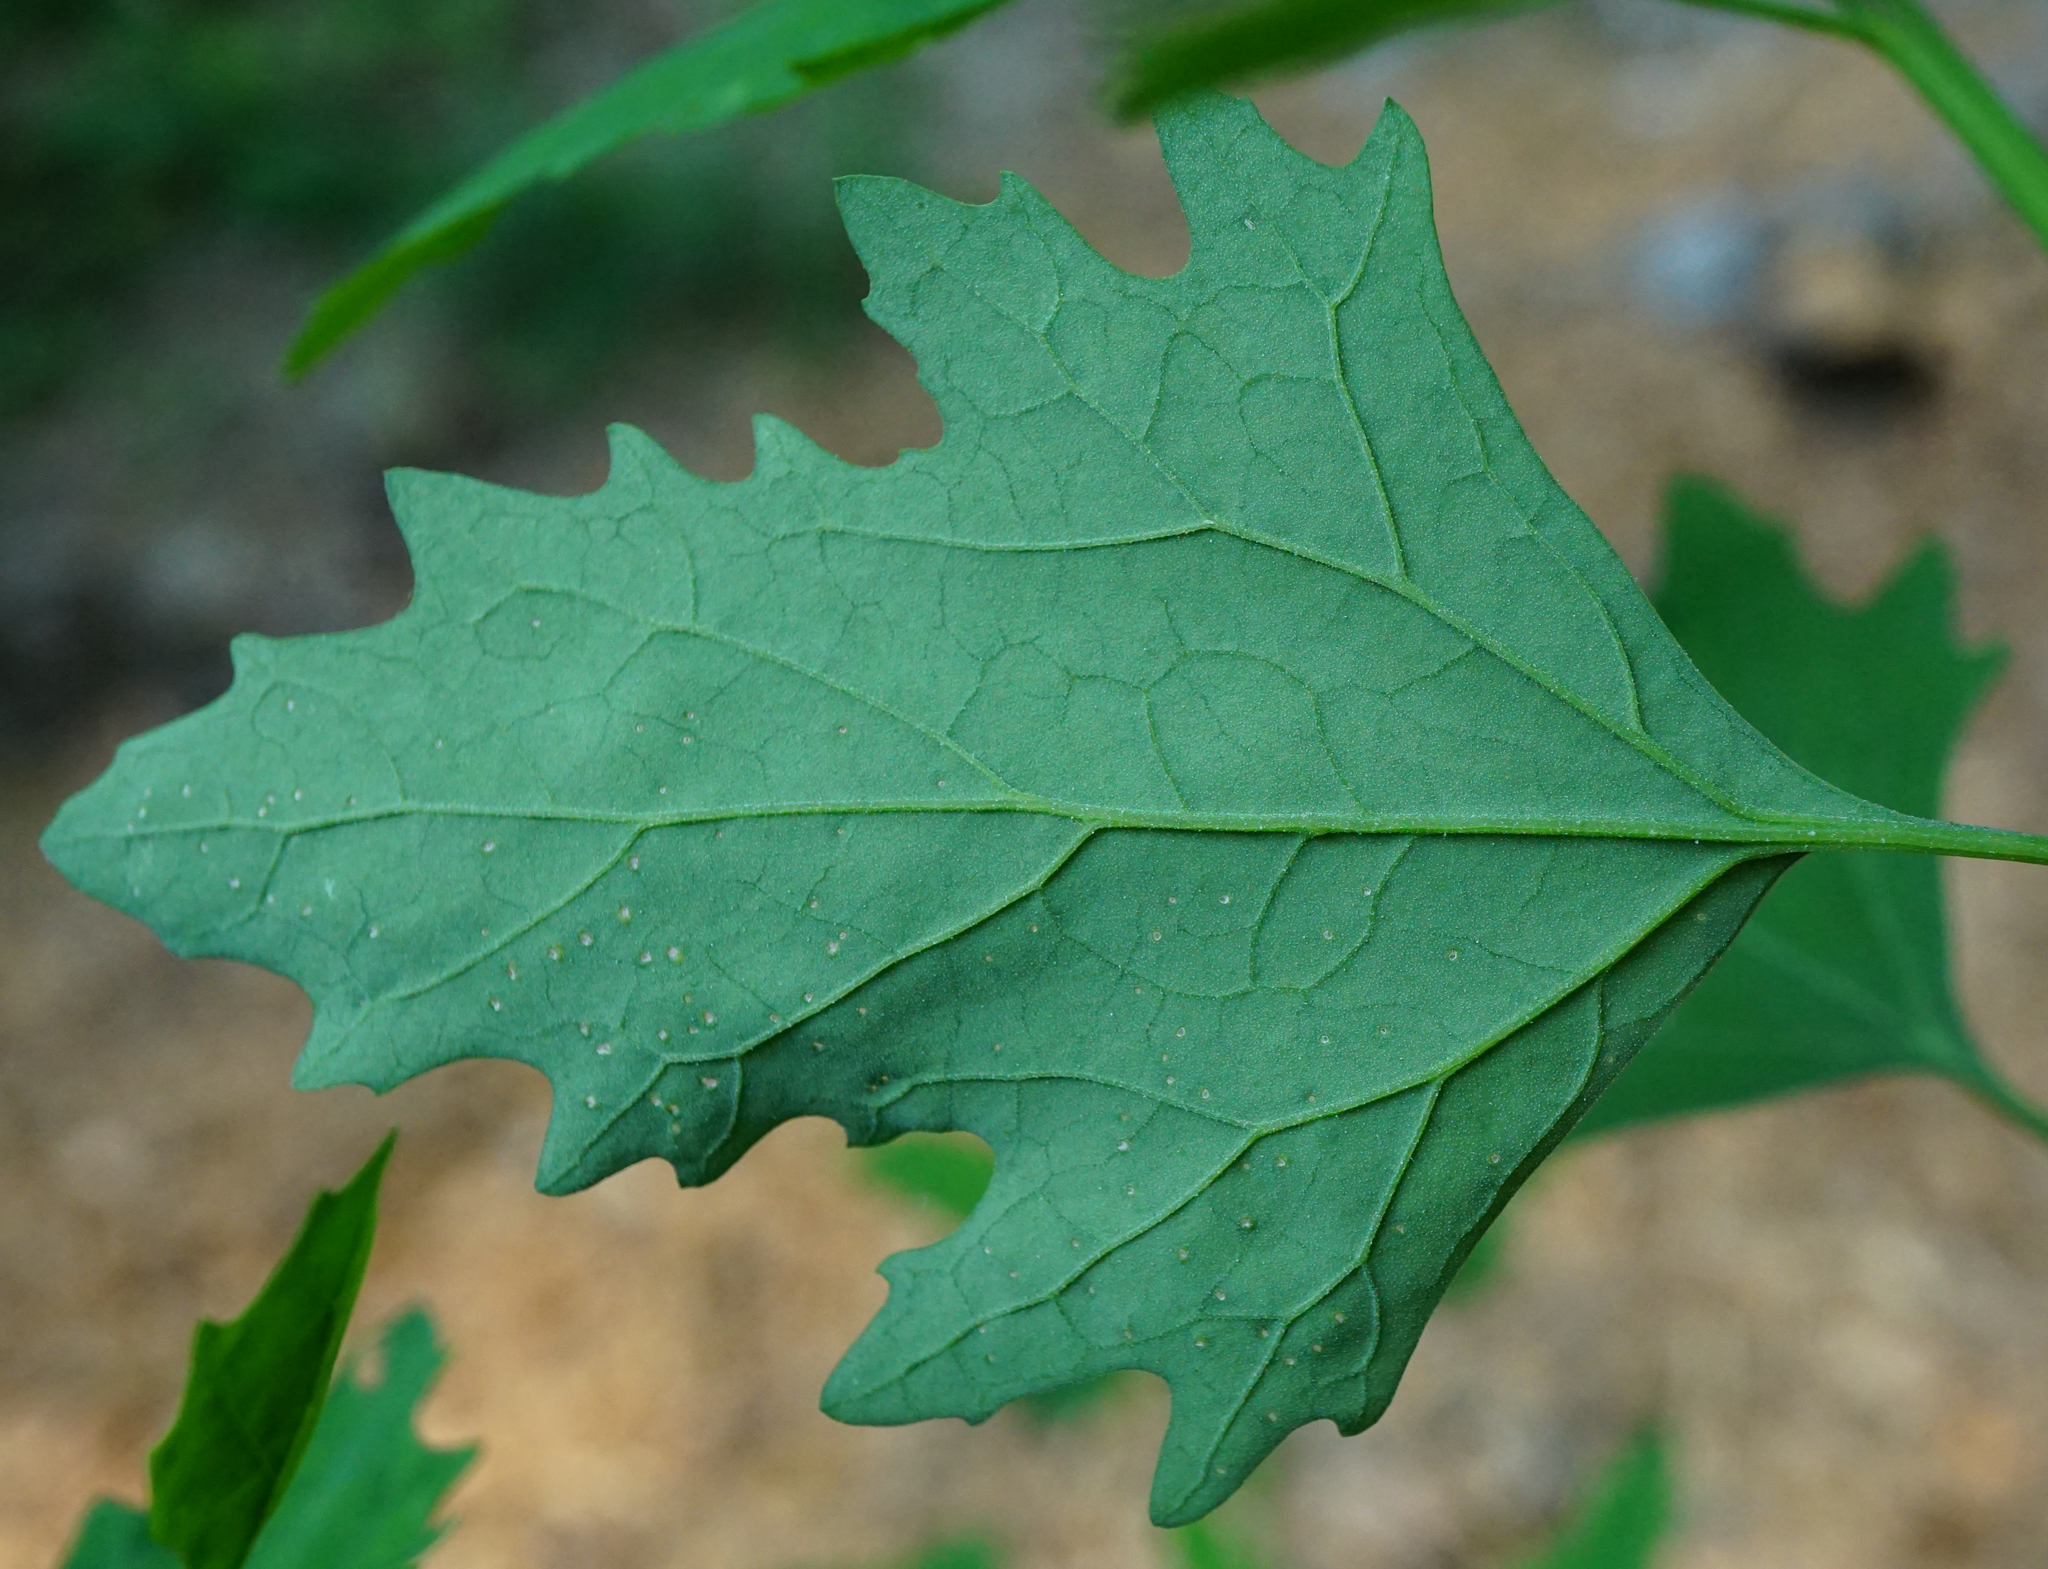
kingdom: Plantae
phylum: Tracheophyta
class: Magnoliopsida
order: Caryophyllales
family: Amaranthaceae
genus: Chenopodium
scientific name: Chenopodium album
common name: Fat-hen
